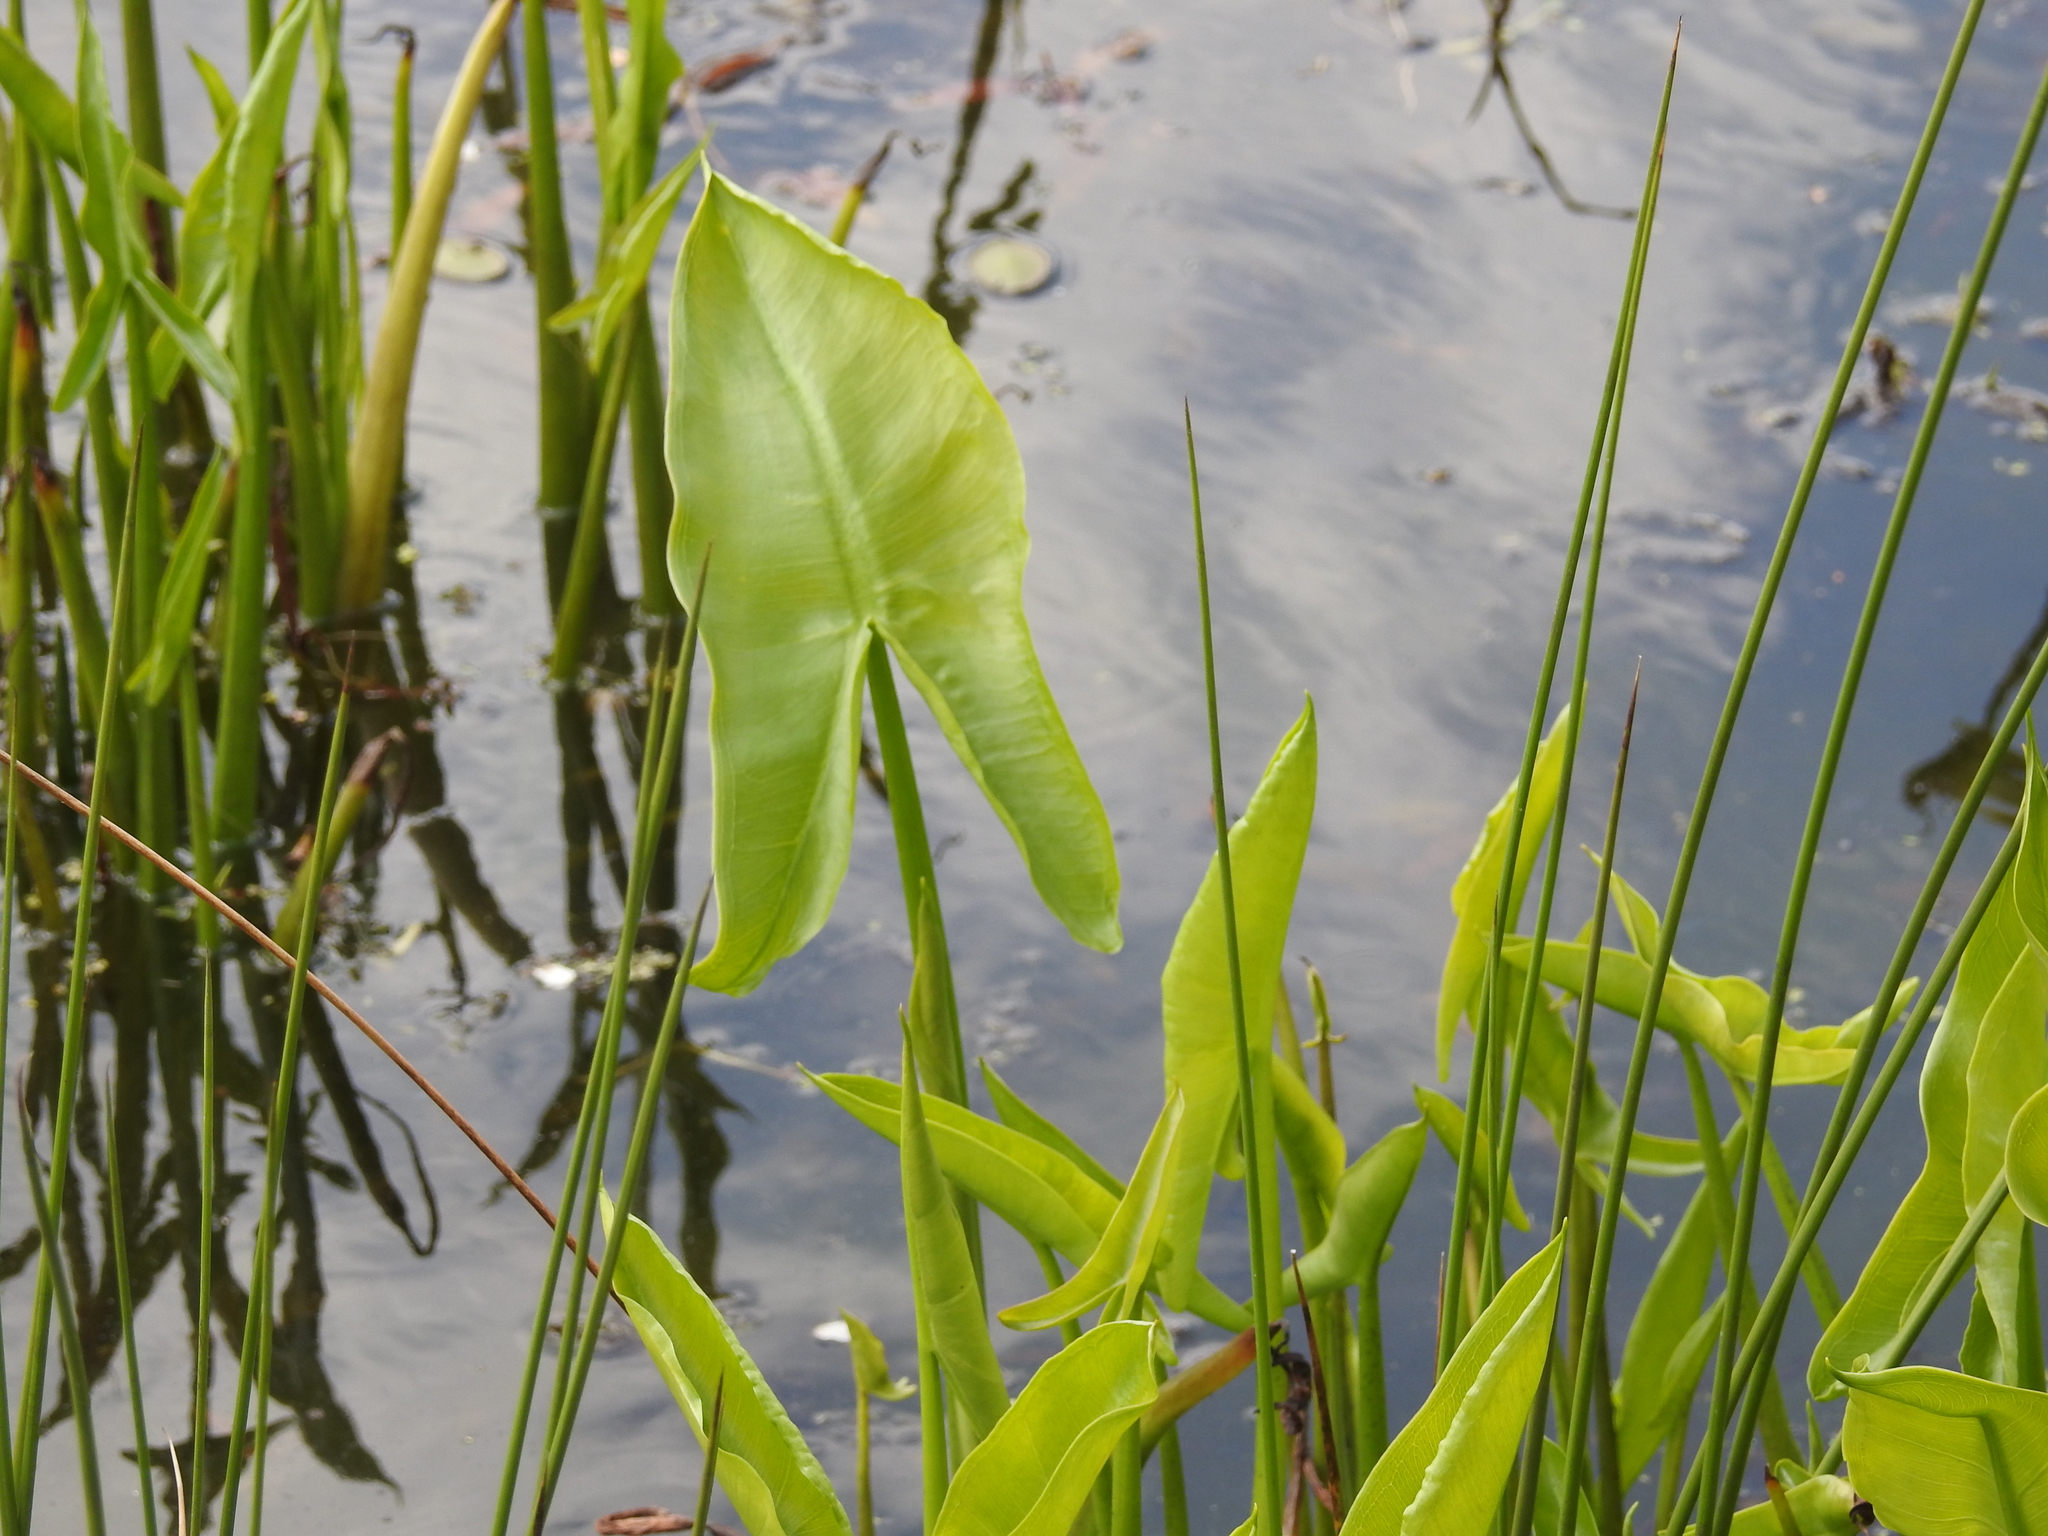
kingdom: Plantae
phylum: Tracheophyta
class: Liliopsida
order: Alismatales
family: Araceae
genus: Peltandra
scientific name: Peltandra virginica
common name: Arrow arum
